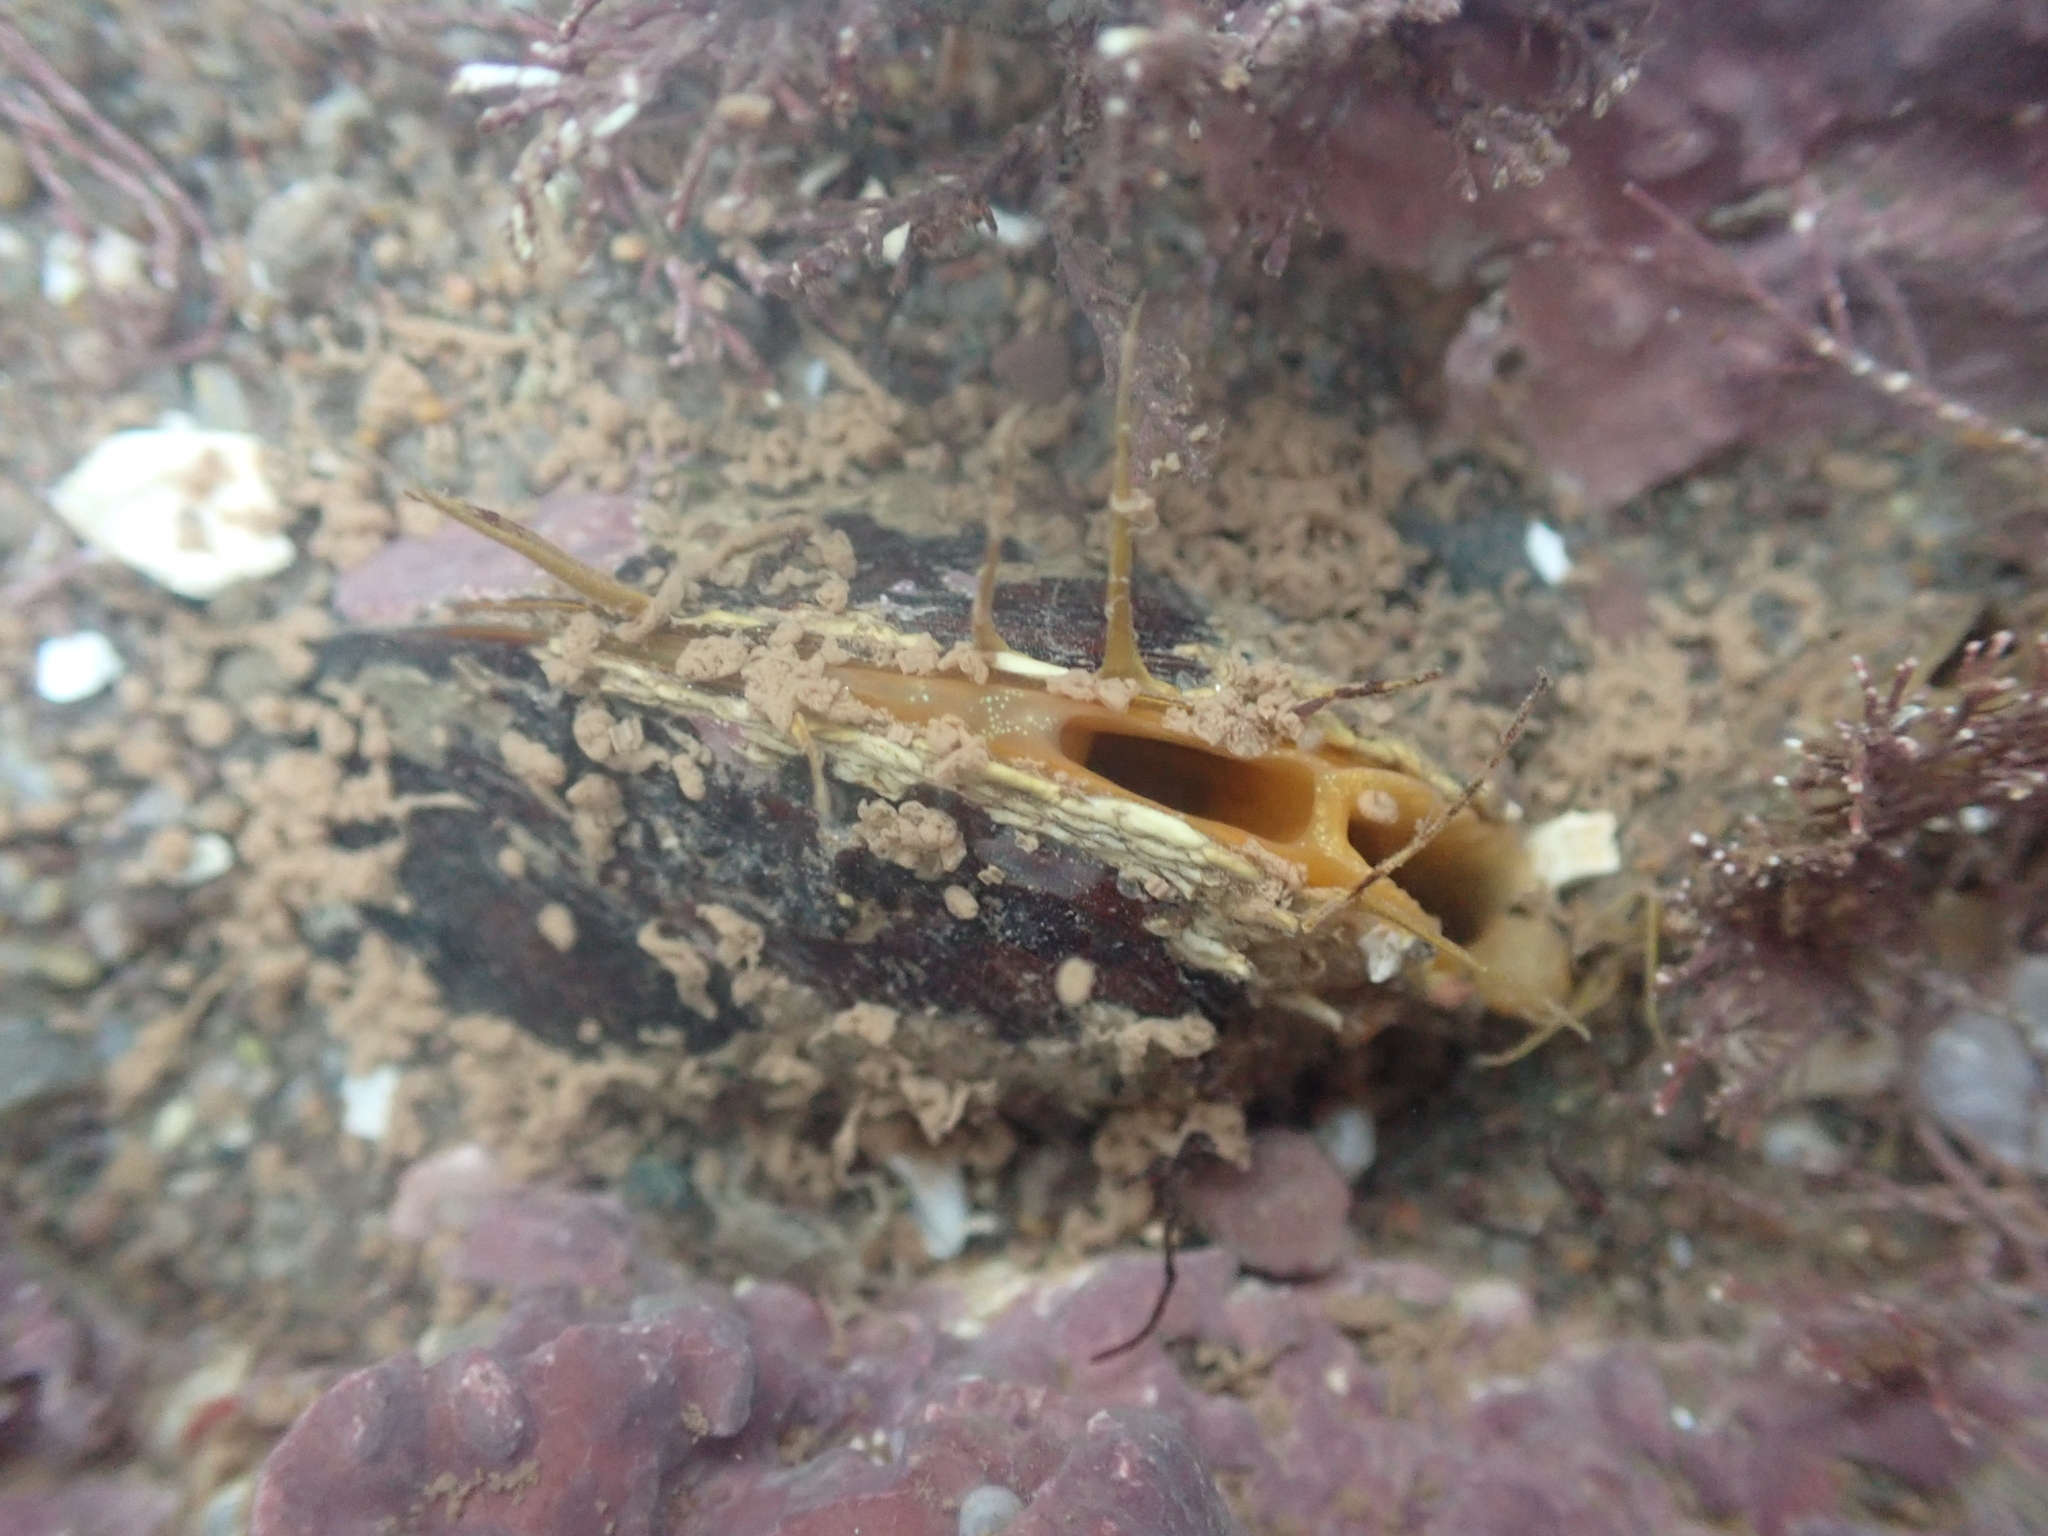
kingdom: Animalia
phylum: Mollusca
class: Bivalvia
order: Mytilida
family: Mytilidae
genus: Modiolus
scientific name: Modiolus modiolus
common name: Horse-mussel
